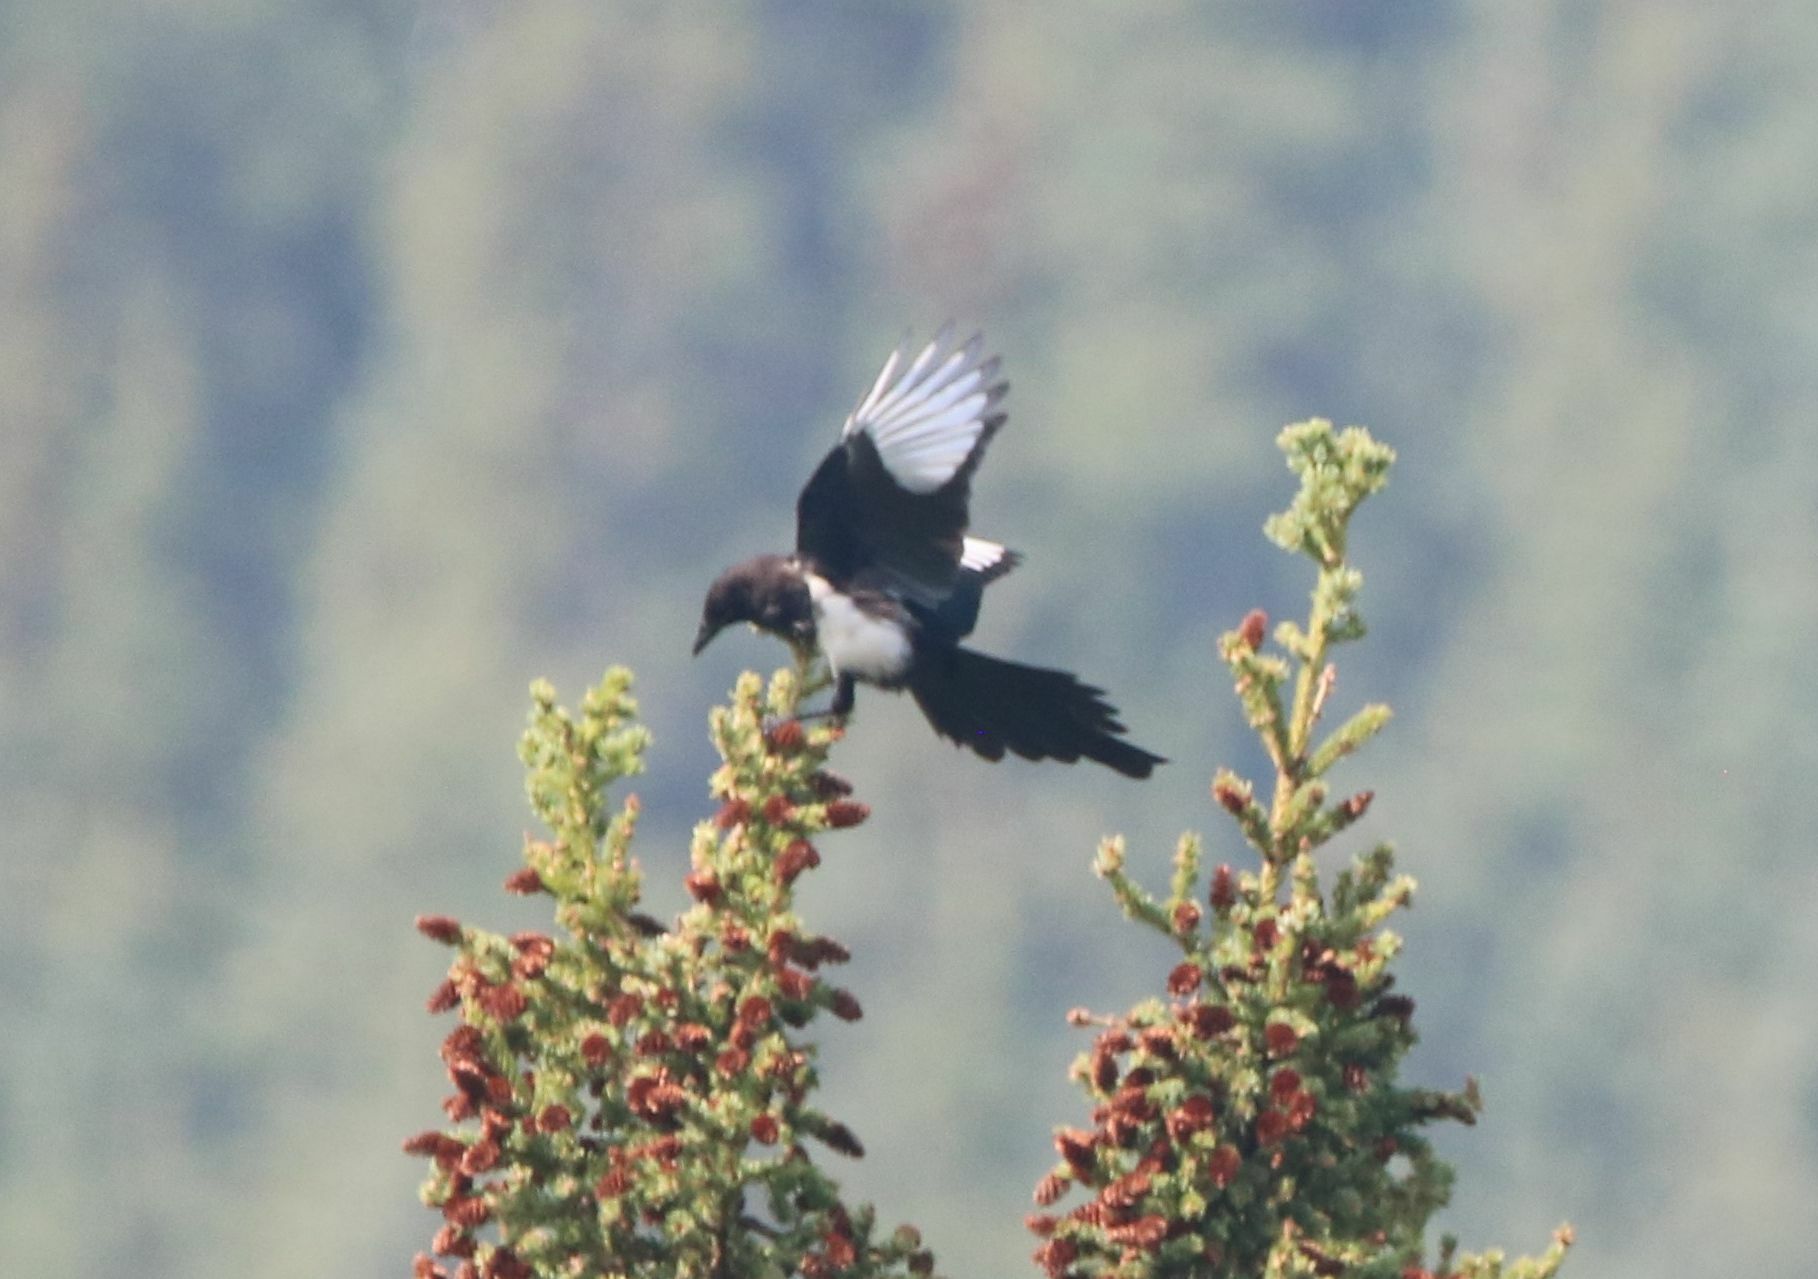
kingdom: Animalia
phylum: Chordata
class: Aves
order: Passeriformes
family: Corvidae
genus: Pica
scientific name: Pica hudsonia
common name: Black-billed magpie
